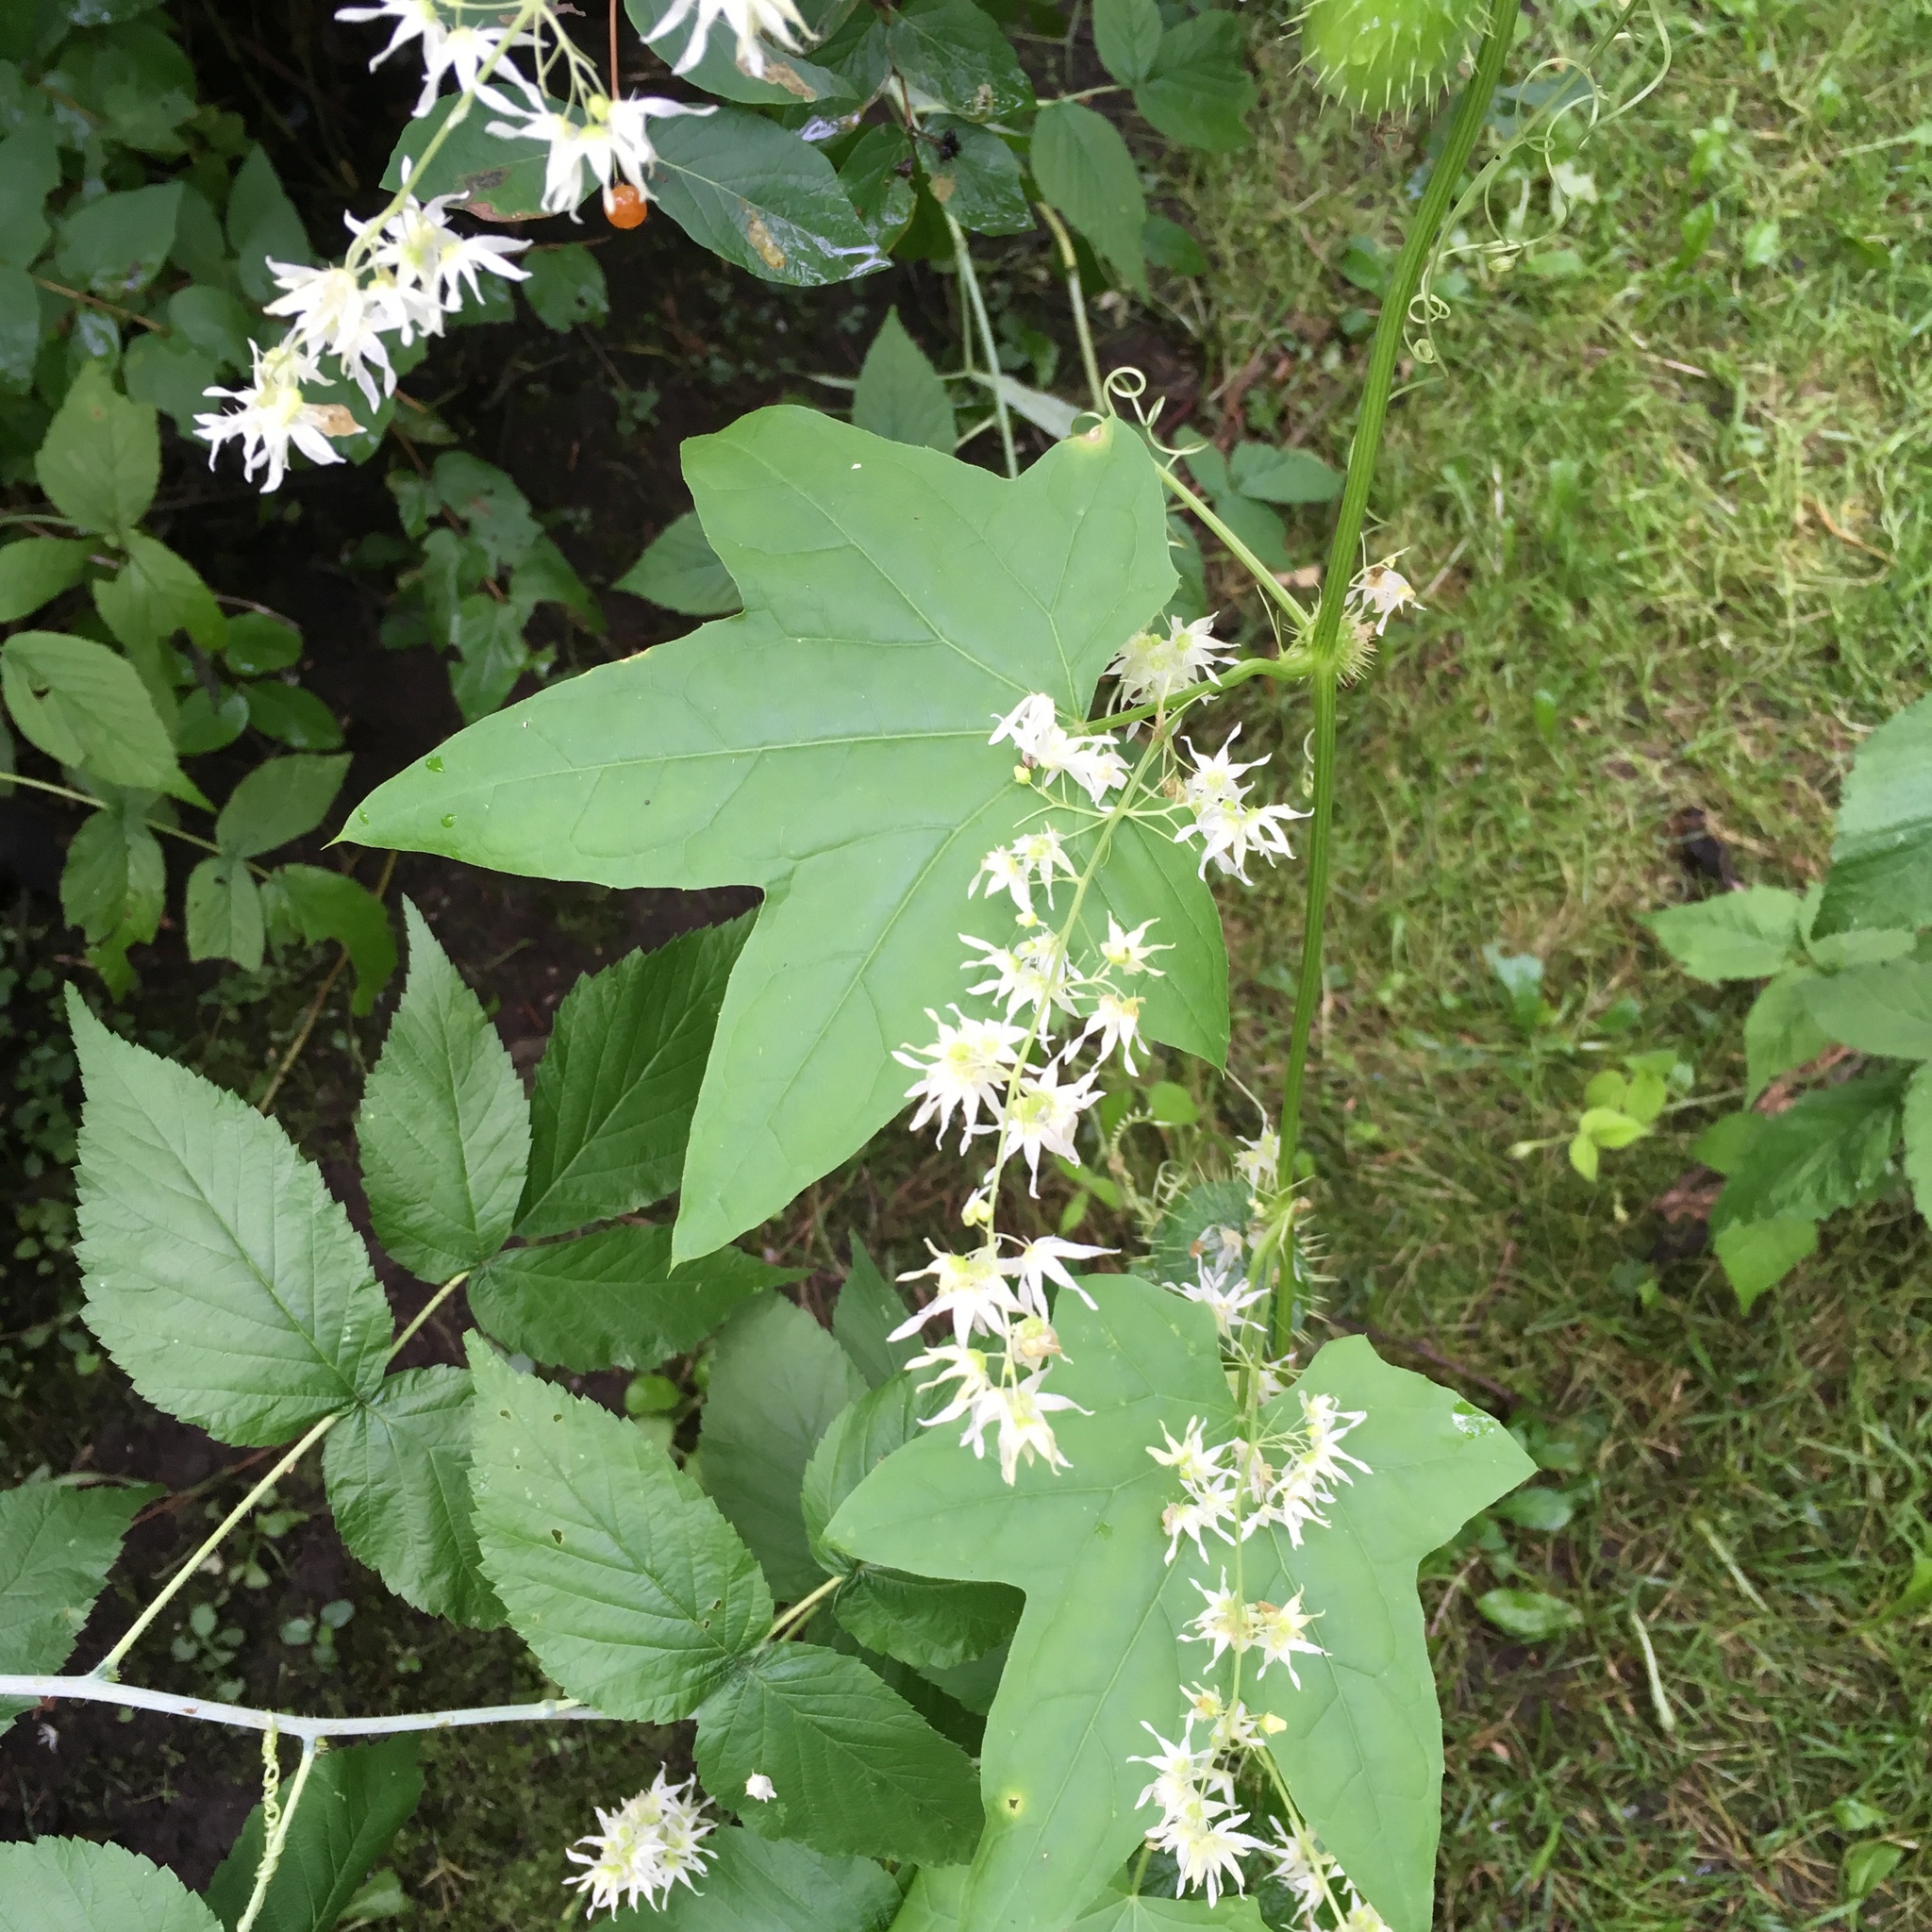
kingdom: Plantae
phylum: Tracheophyta
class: Magnoliopsida
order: Cucurbitales
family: Cucurbitaceae
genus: Echinocystis
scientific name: Echinocystis lobata
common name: Wild cucumber
